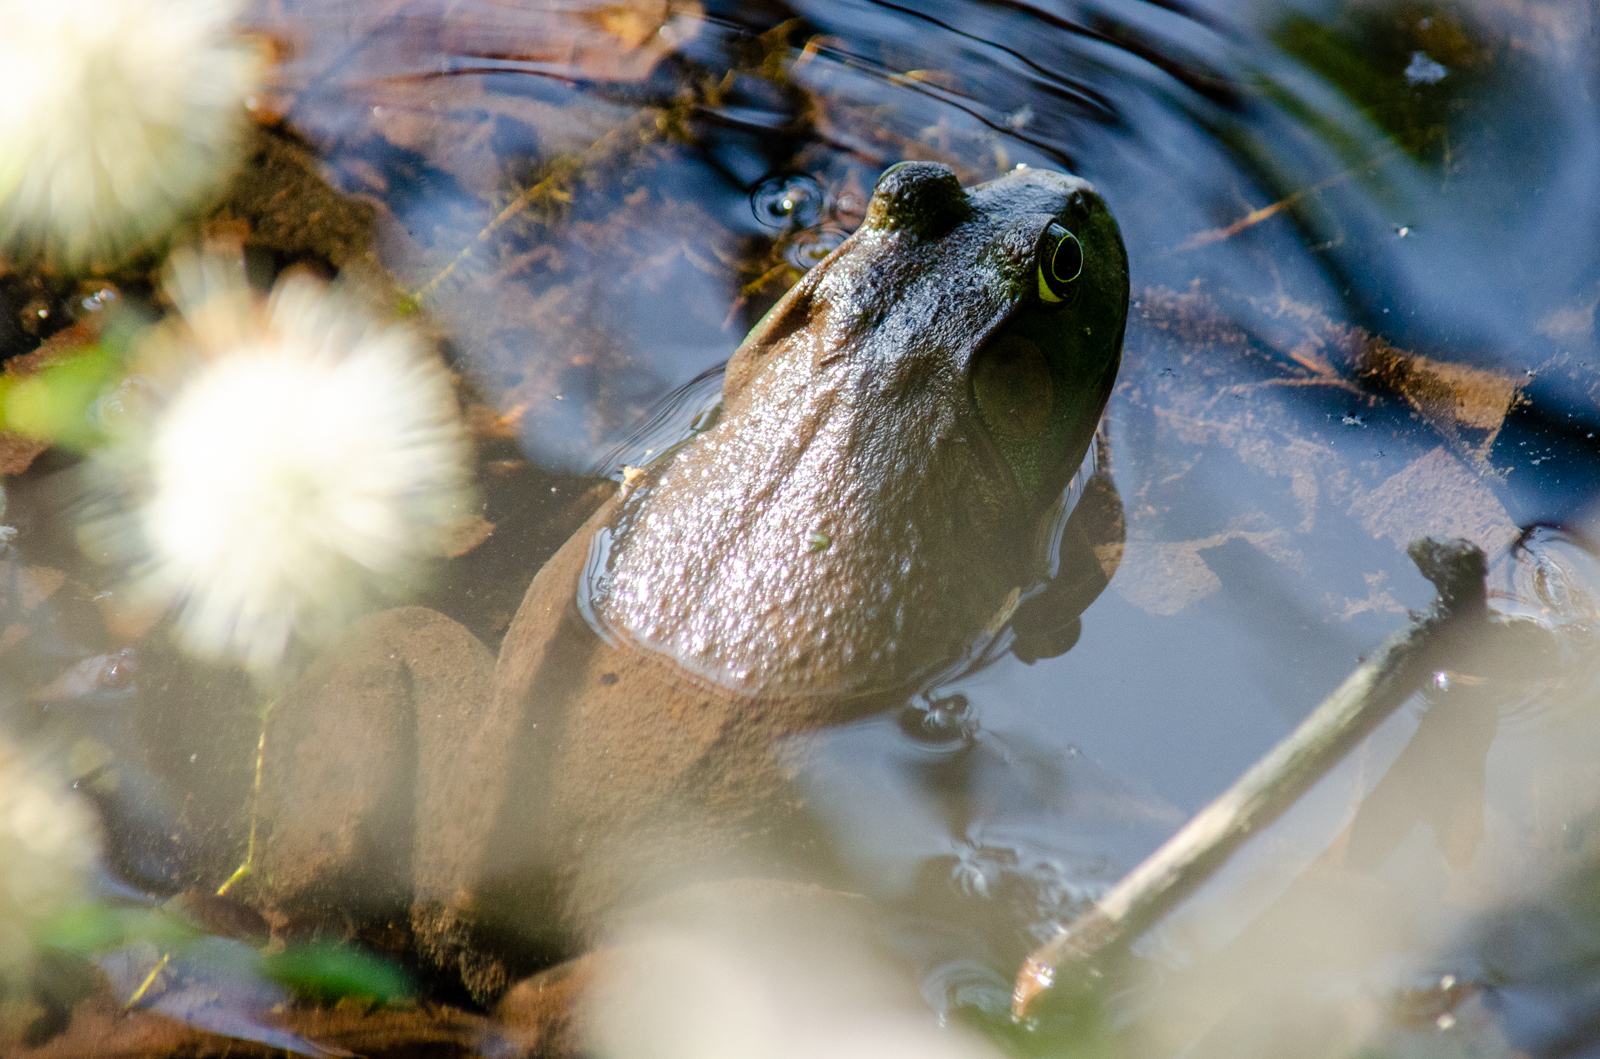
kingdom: Animalia
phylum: Chordata
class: Amphibia
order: Anura
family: Ranidae
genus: Lithobates
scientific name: Lithobates catesbeianus
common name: American bullfrog
